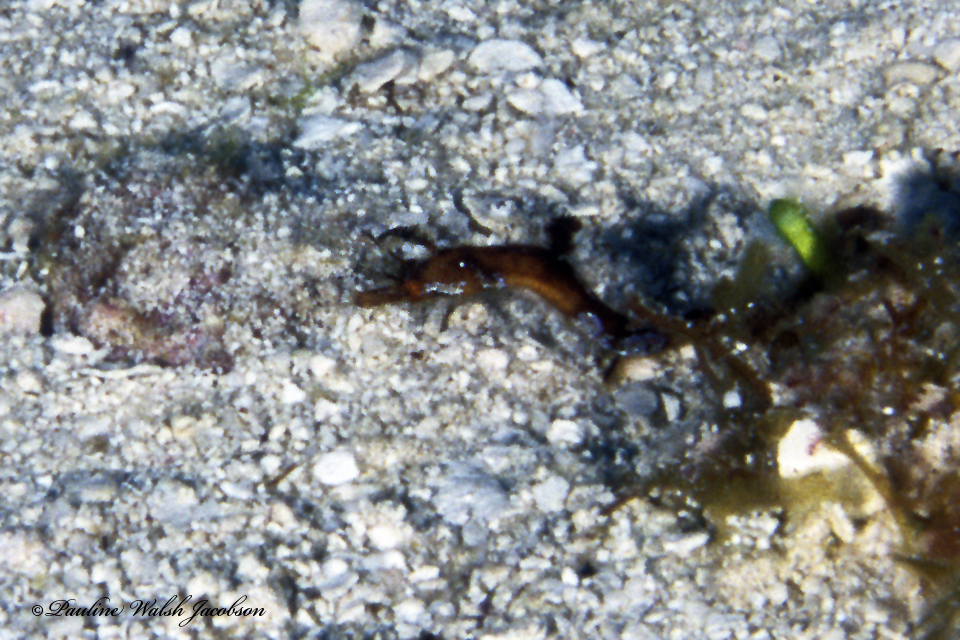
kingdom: Animalia
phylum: Chordata
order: Syngnathiformes
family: Syngnathidae
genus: Amphelikturus
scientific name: Amphelikturus dendriticus
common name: Seahorse pipefish
